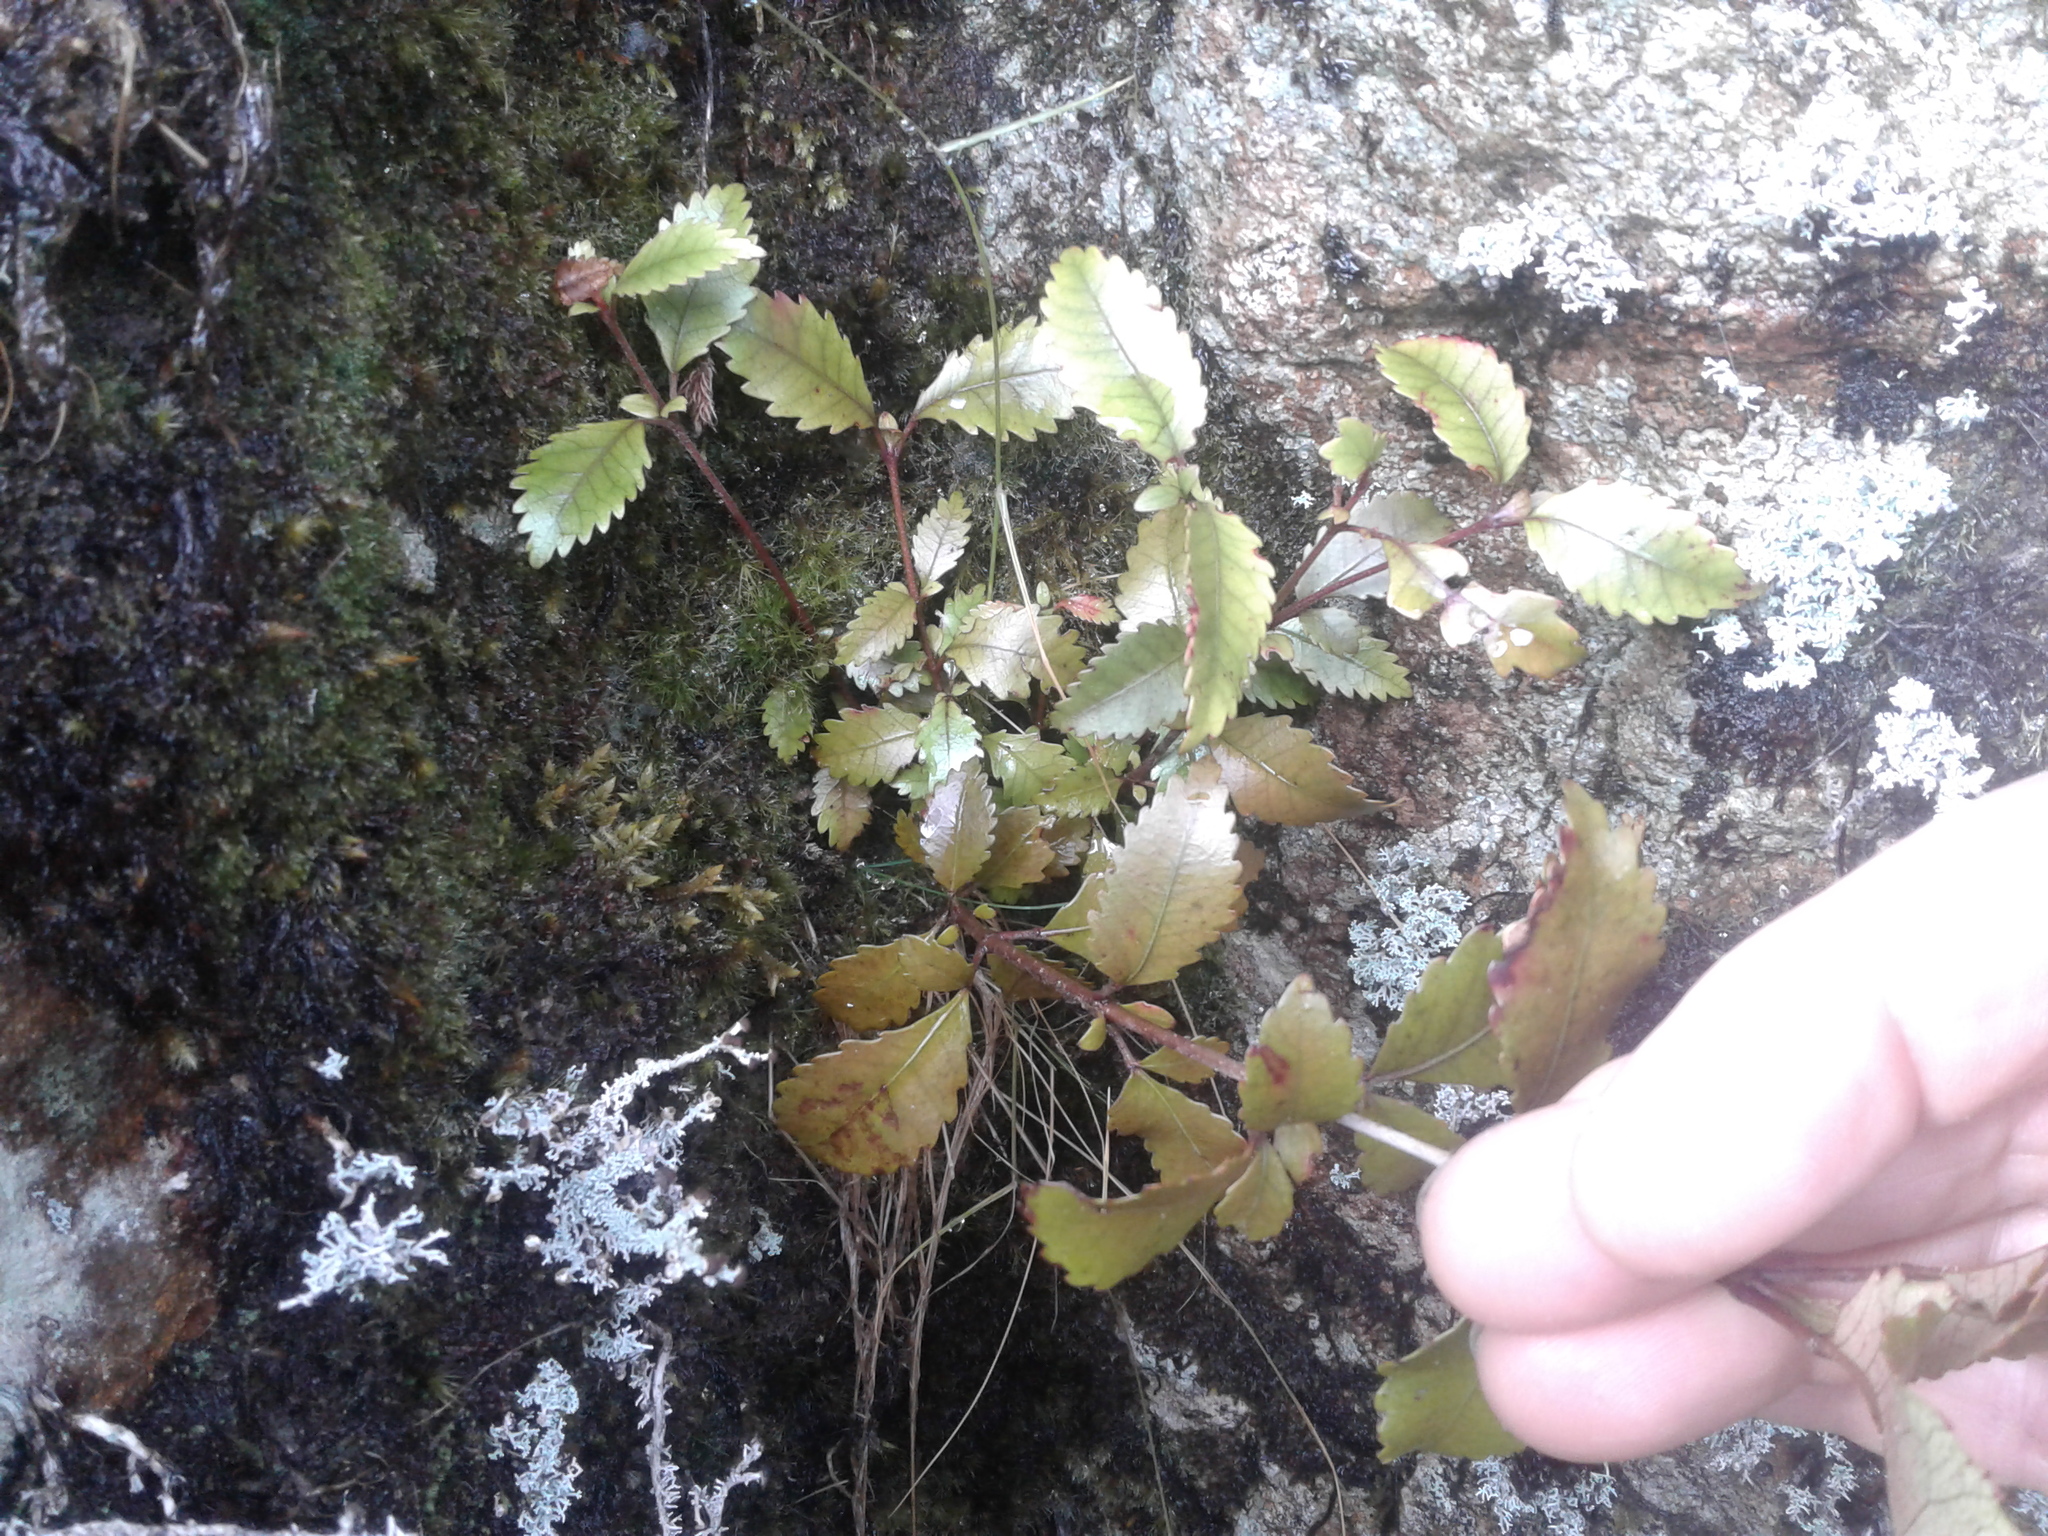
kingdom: Plantae
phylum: Tracheophyta
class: Magnoliopsida
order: Oxalidales
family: Cunoniaceae
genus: Pterophylla
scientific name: Pterophylla racemosa
